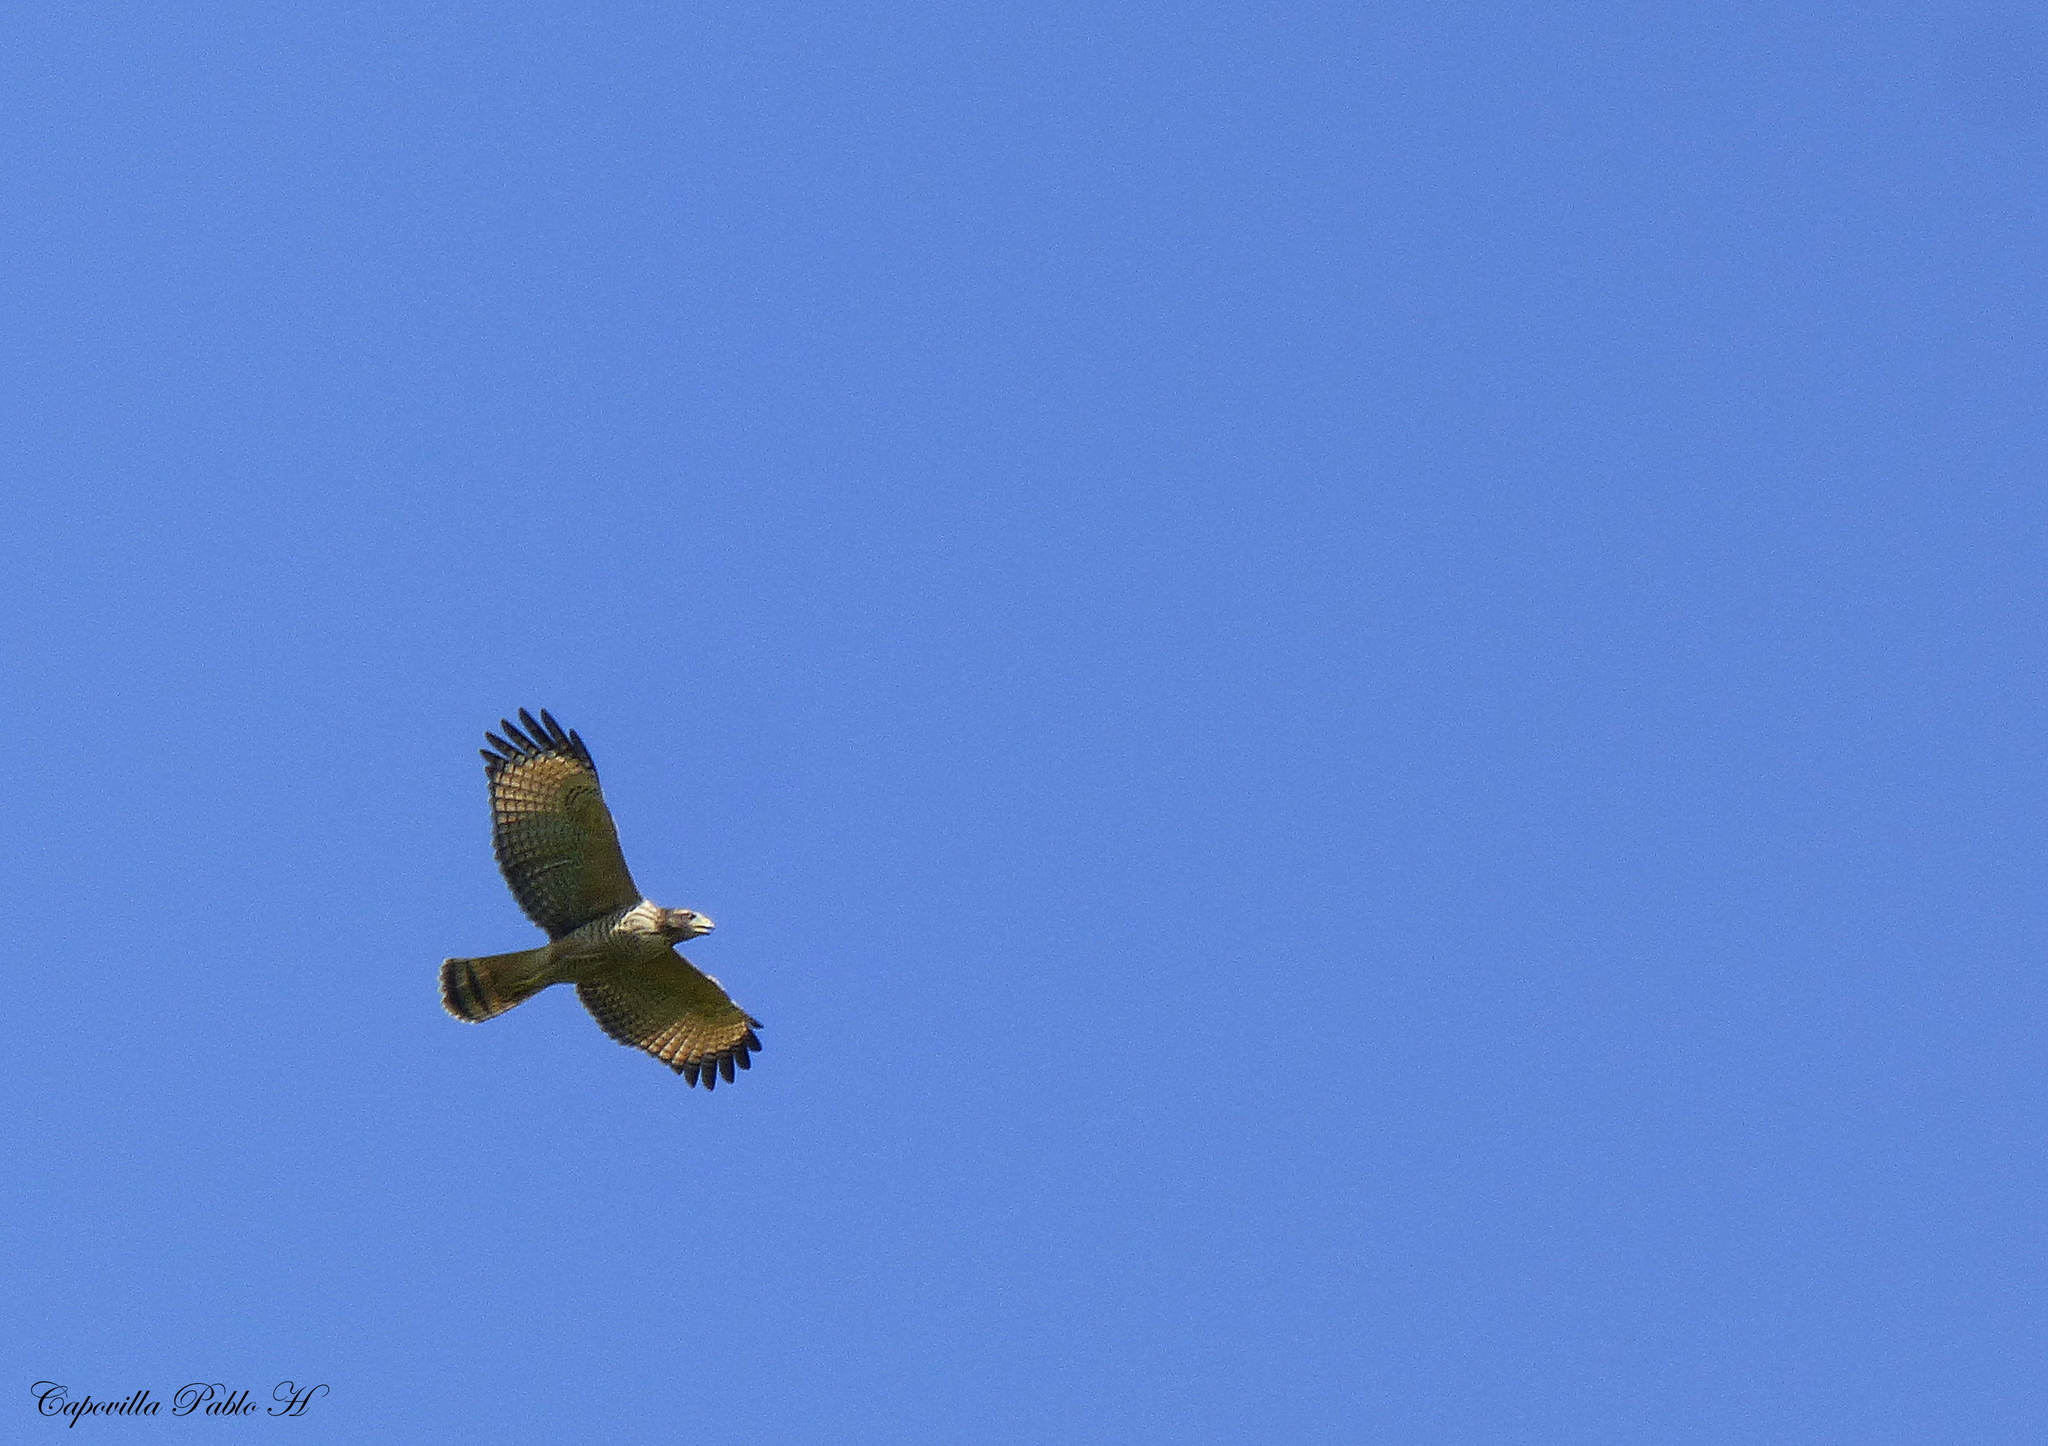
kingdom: Animalia
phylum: Chordata
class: Aves
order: Accipitriformes
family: Accipitridae
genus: Rupornis
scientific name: Rupornis magnirostris
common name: Roadside hawk
